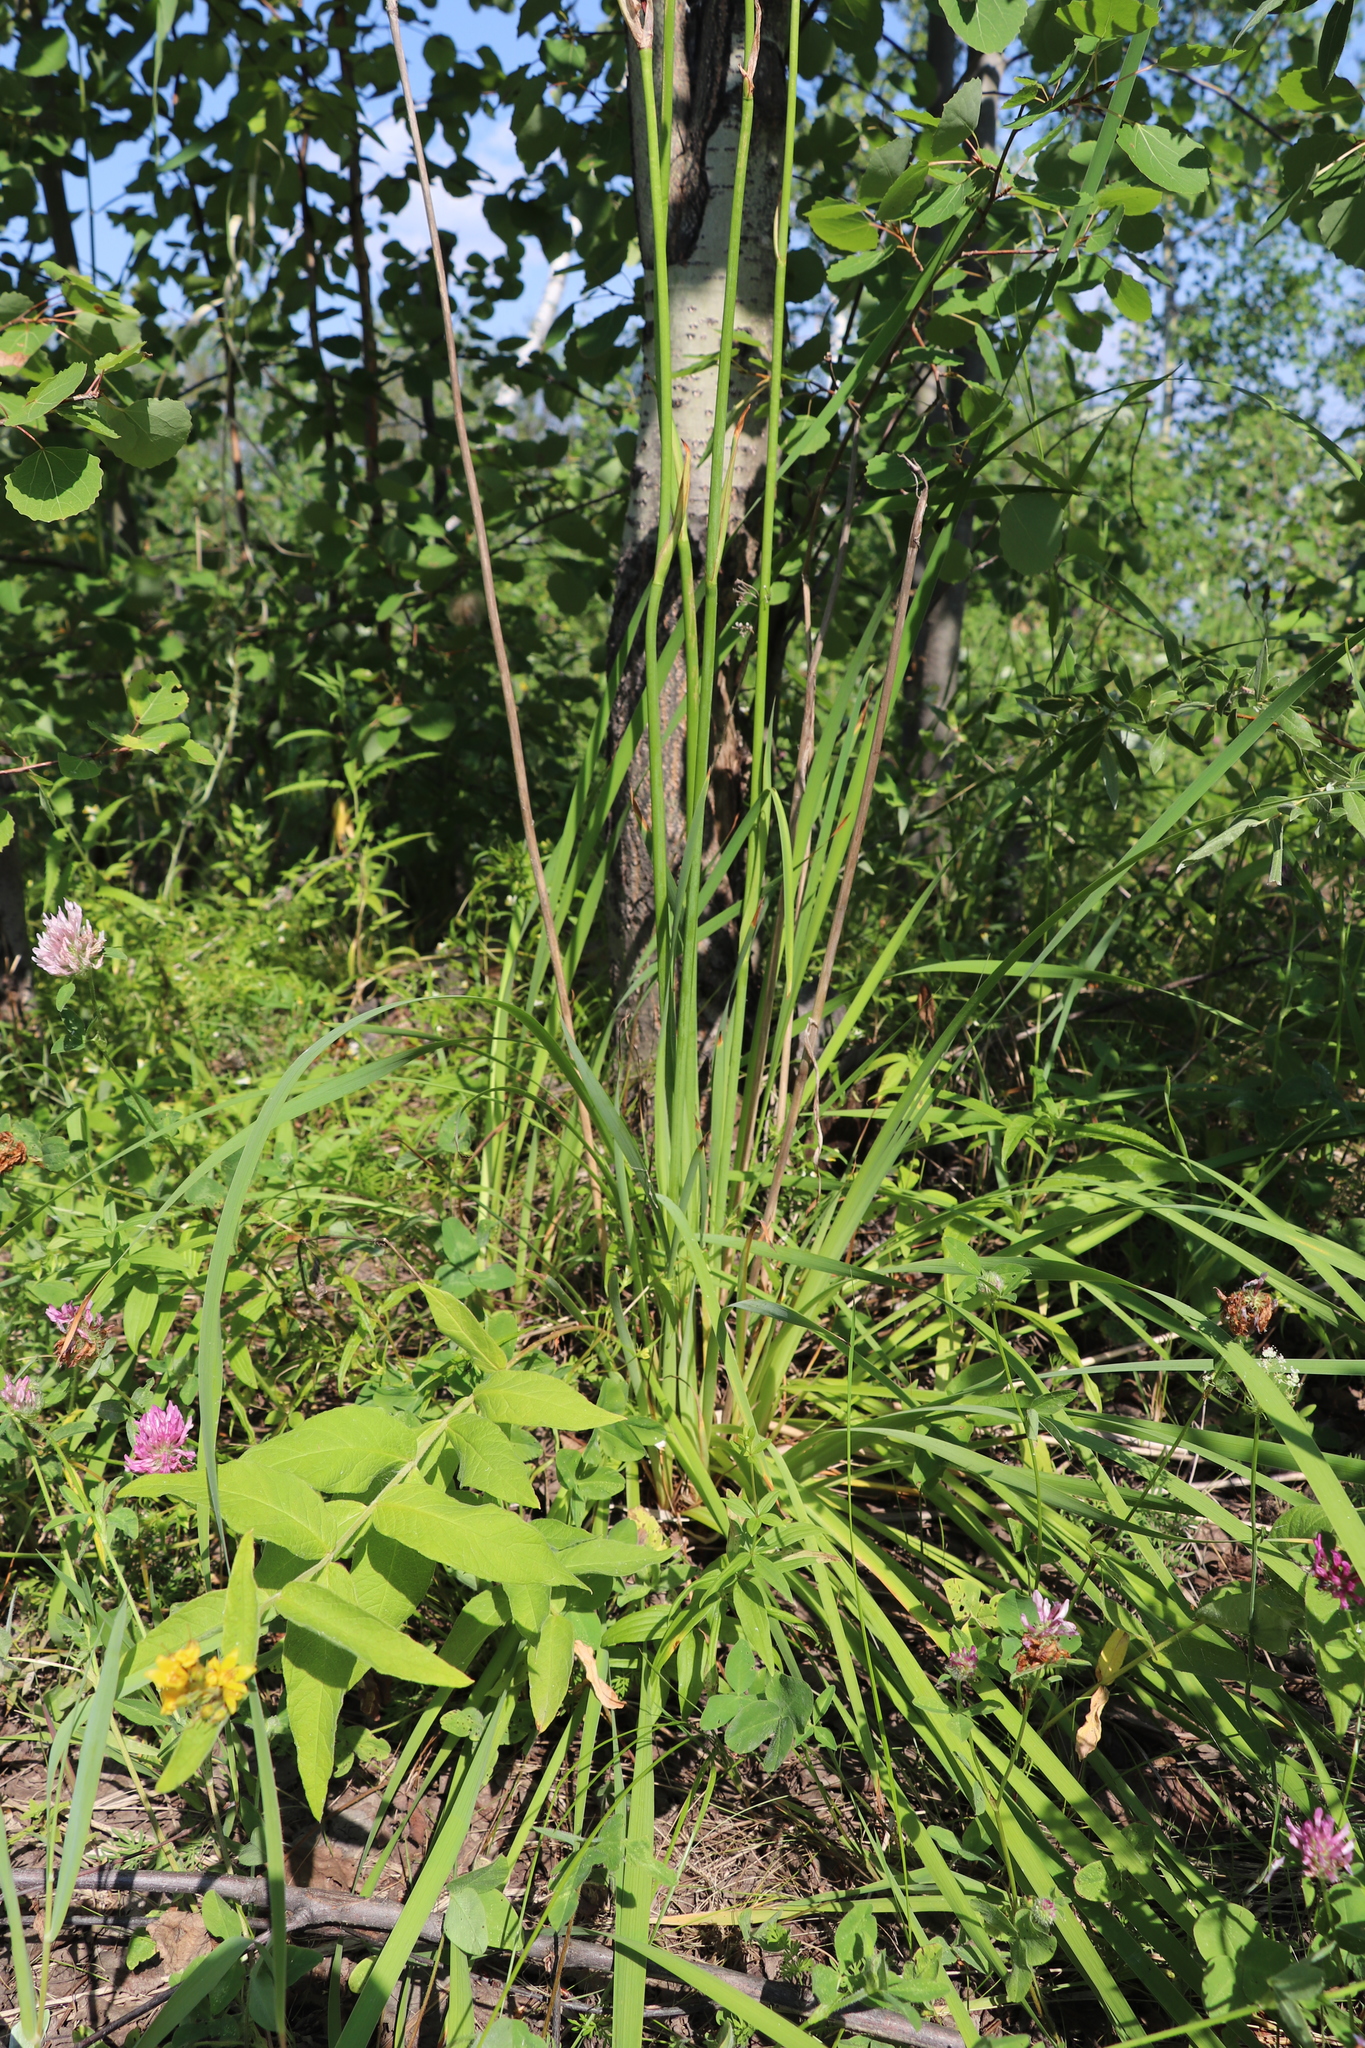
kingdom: Plantae
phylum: Tracheophyta
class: Liliopsida
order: Asparagales
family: Iridaceae
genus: Iris
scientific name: Iris sibirica
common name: Siberian iris
